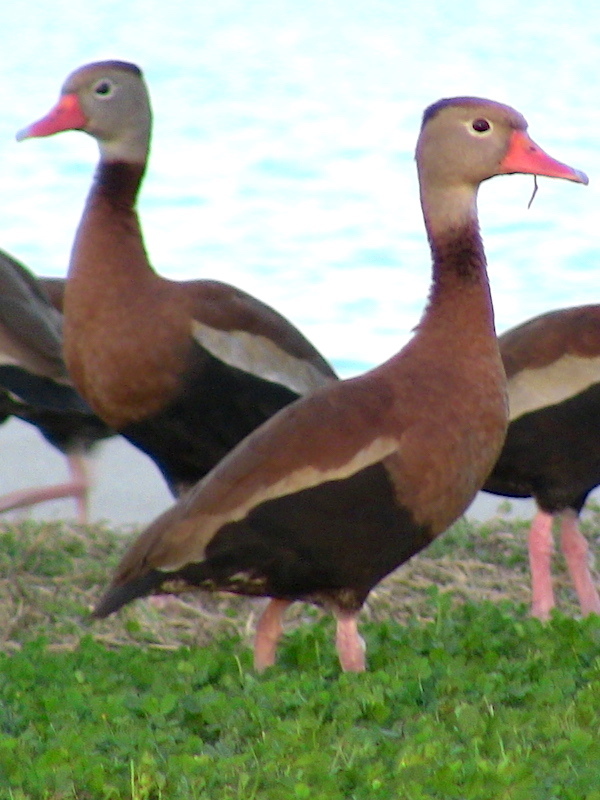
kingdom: Animalia
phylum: Chordata
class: Aves
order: Anseriformes
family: Anatidae
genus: Dendrocygna
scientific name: Dendrocygna autumnalis
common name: Black-bellied whistling duck
